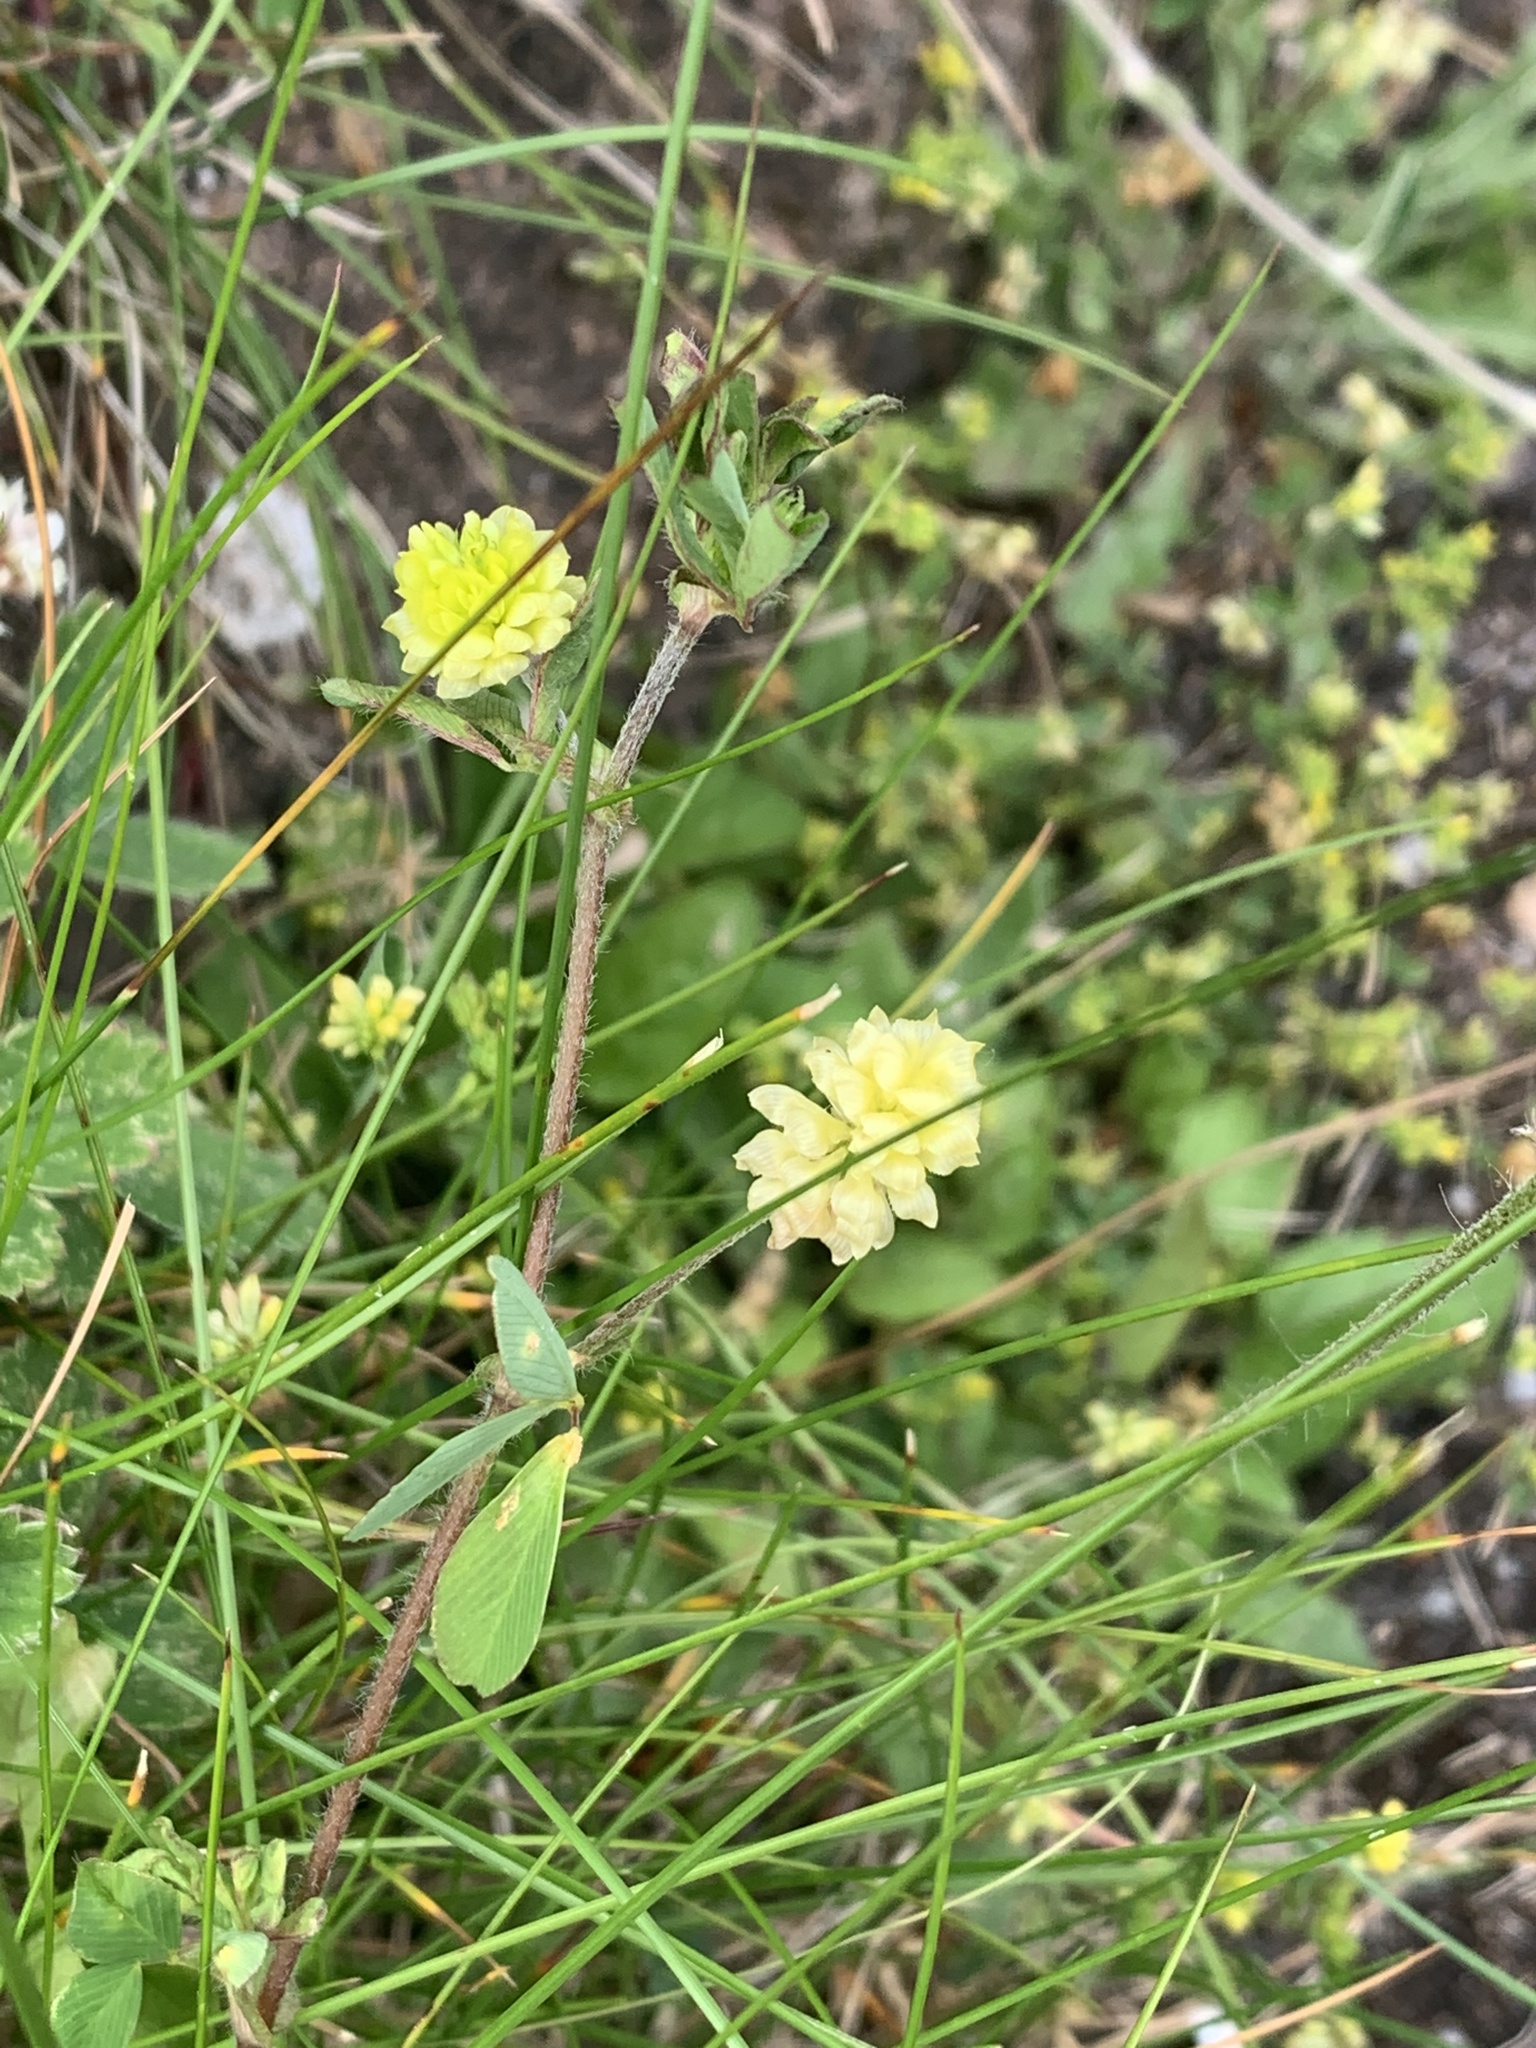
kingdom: Plantae
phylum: Tracheophyta
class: Magnoliopsida
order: Fabales
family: Fabaceae
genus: Trifolium
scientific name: Trifolium campestre
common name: Field clover
